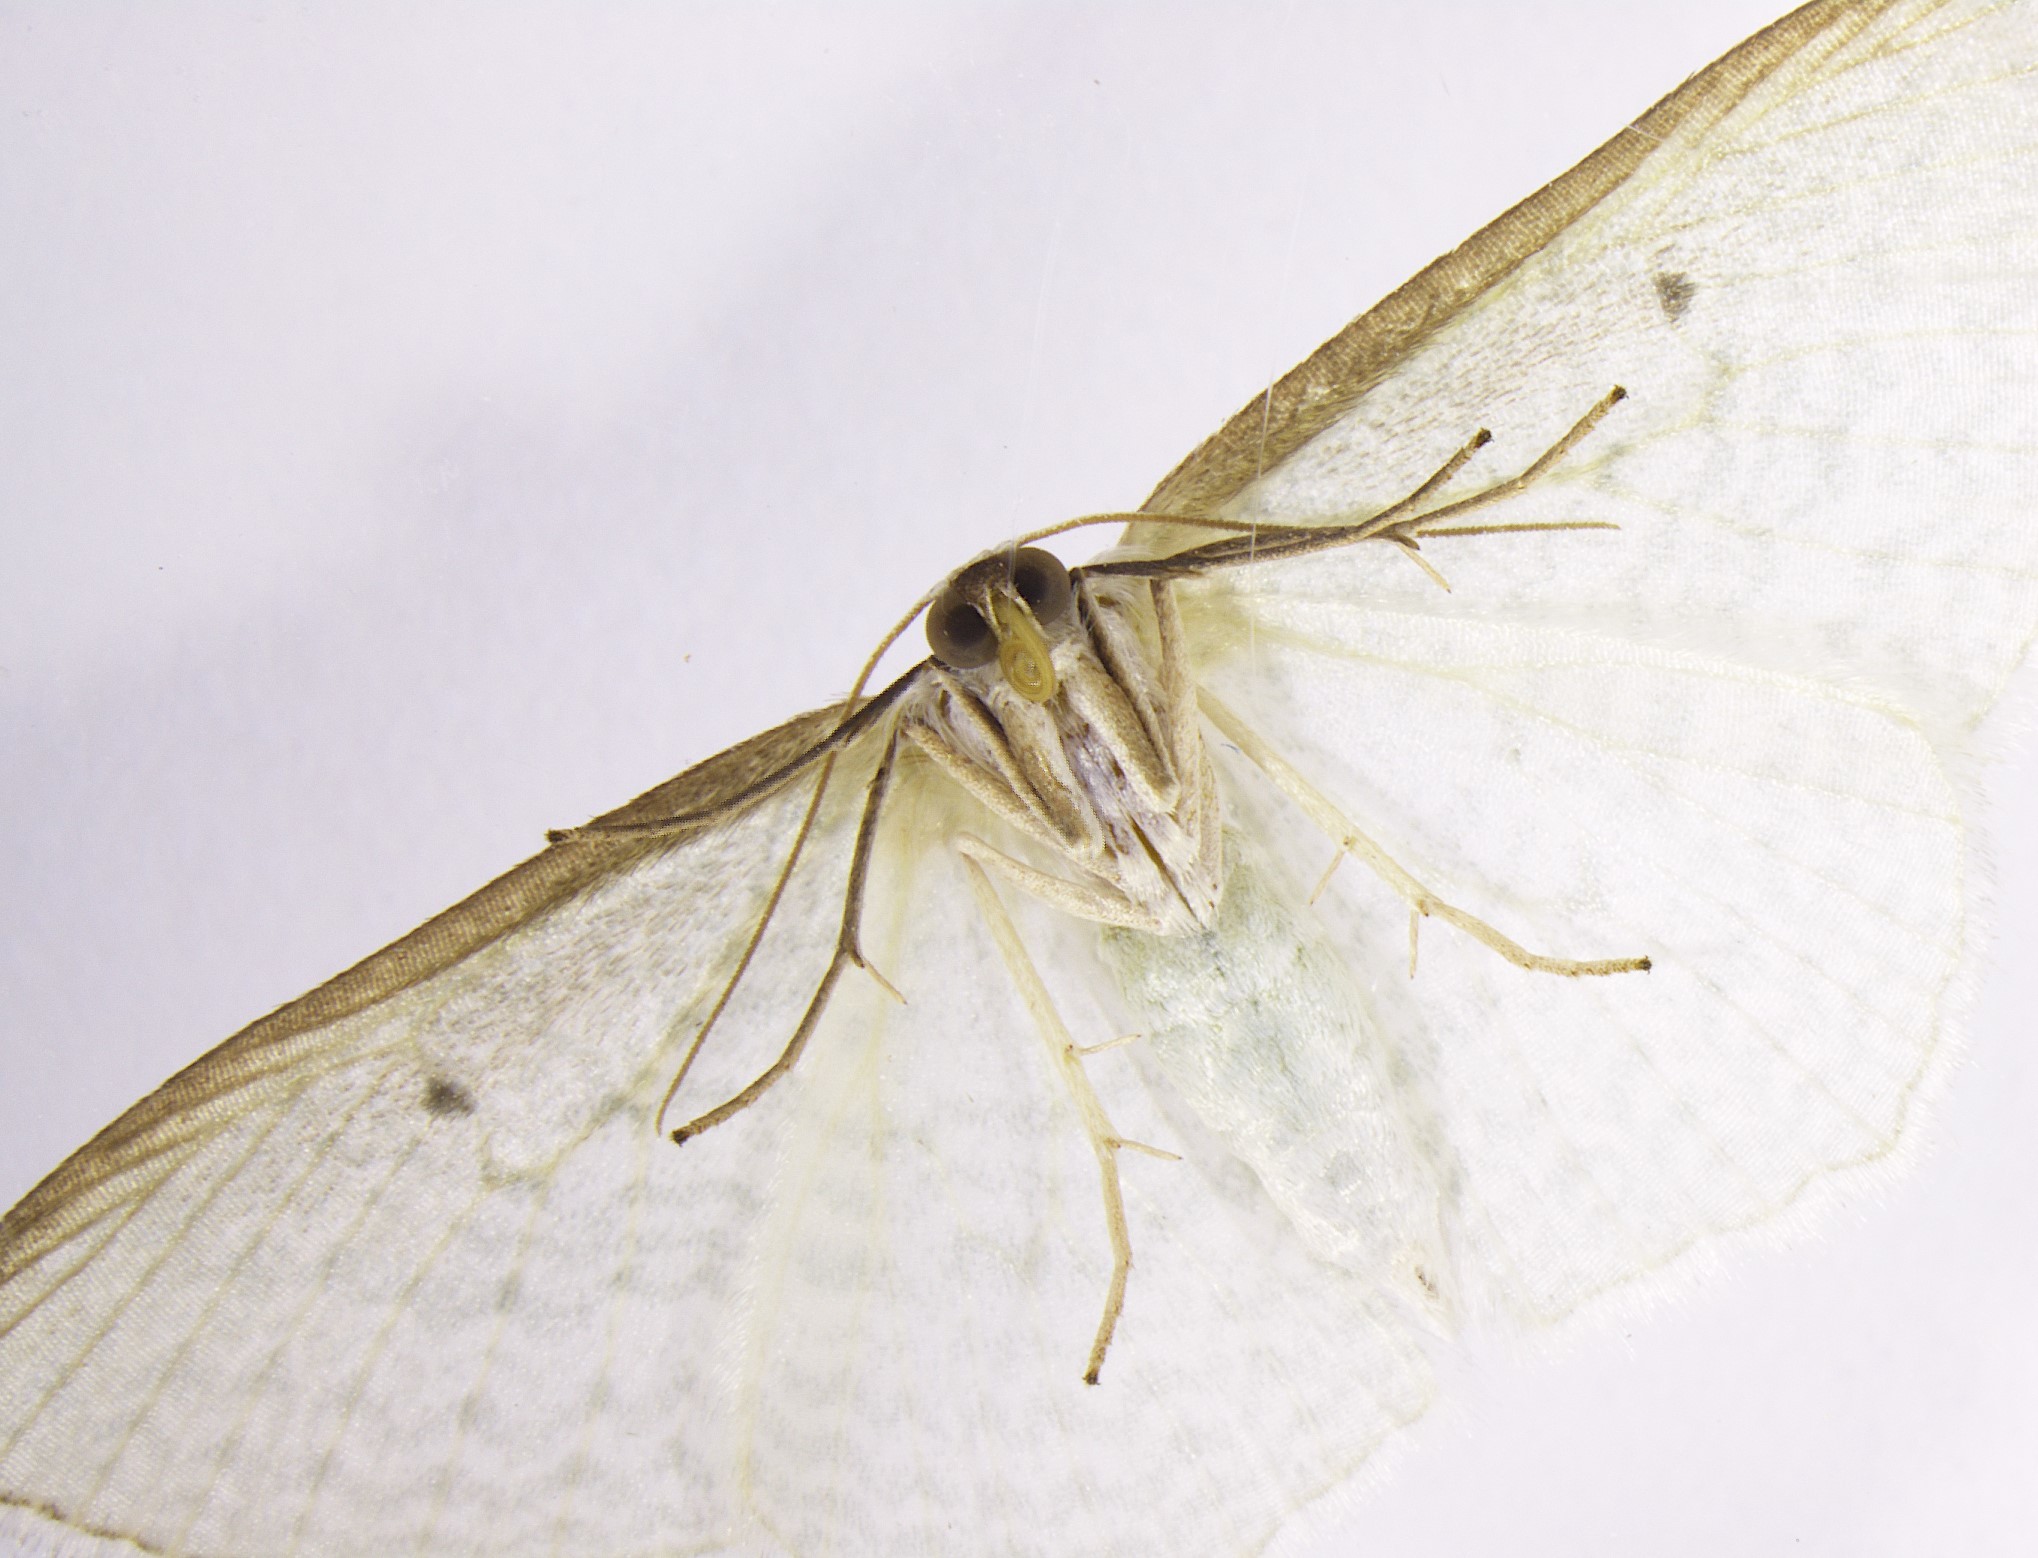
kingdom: Animalia
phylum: Arthropoda
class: Insecta
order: Lepidoptera
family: Geometridae
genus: Poecilasthena
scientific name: Poecilasthena pulchraria
